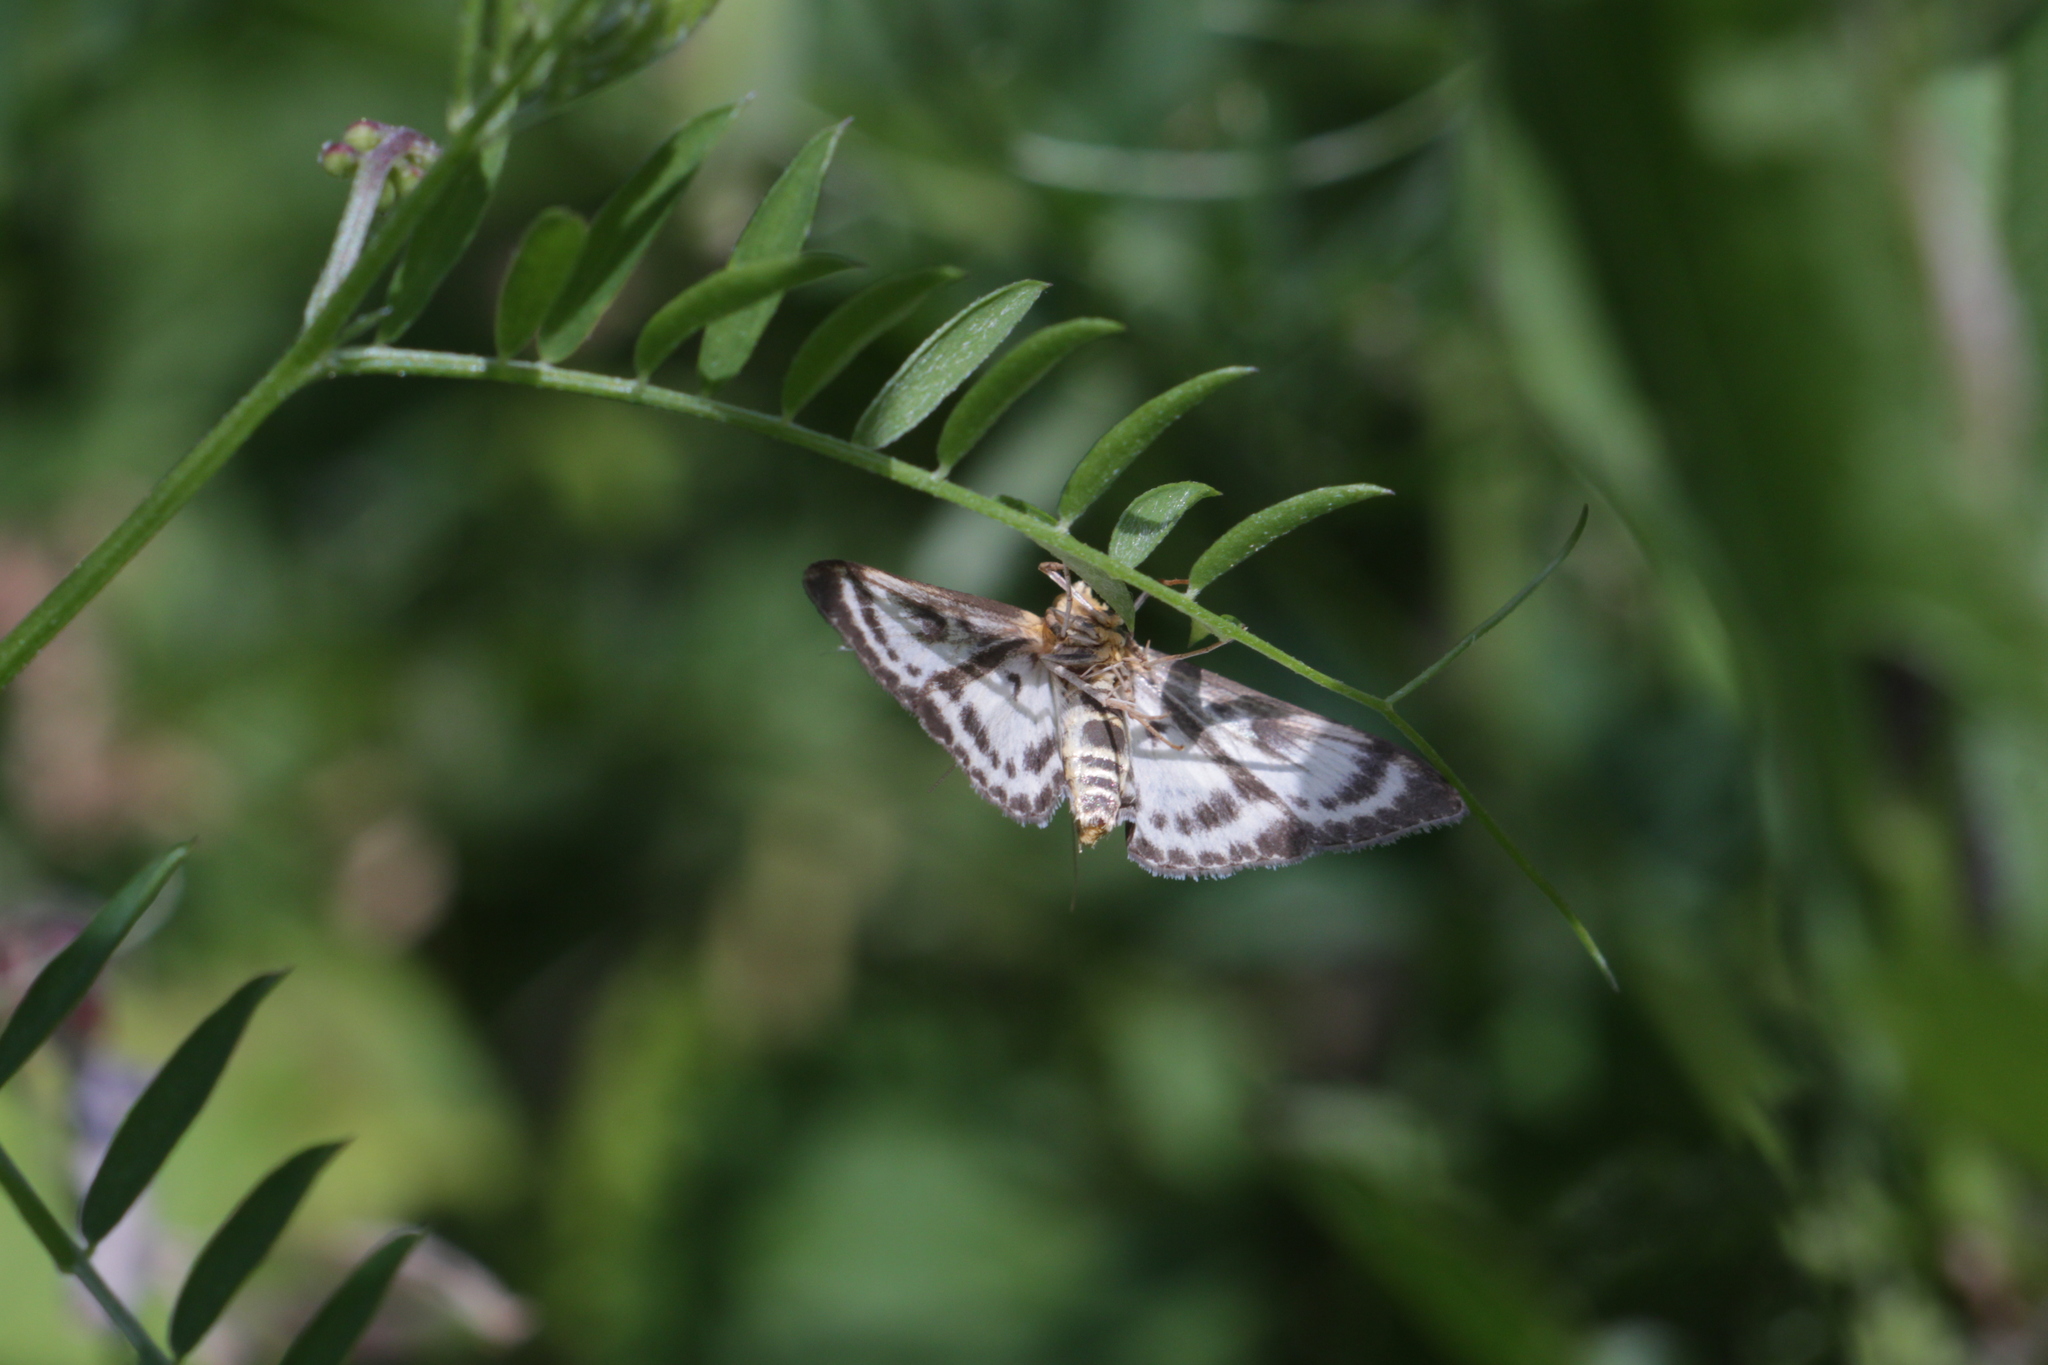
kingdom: Animalia
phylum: Arthropoda
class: Insecta
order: Lepidoptera
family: Crambidae
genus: Anania
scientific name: Anania hortulata
